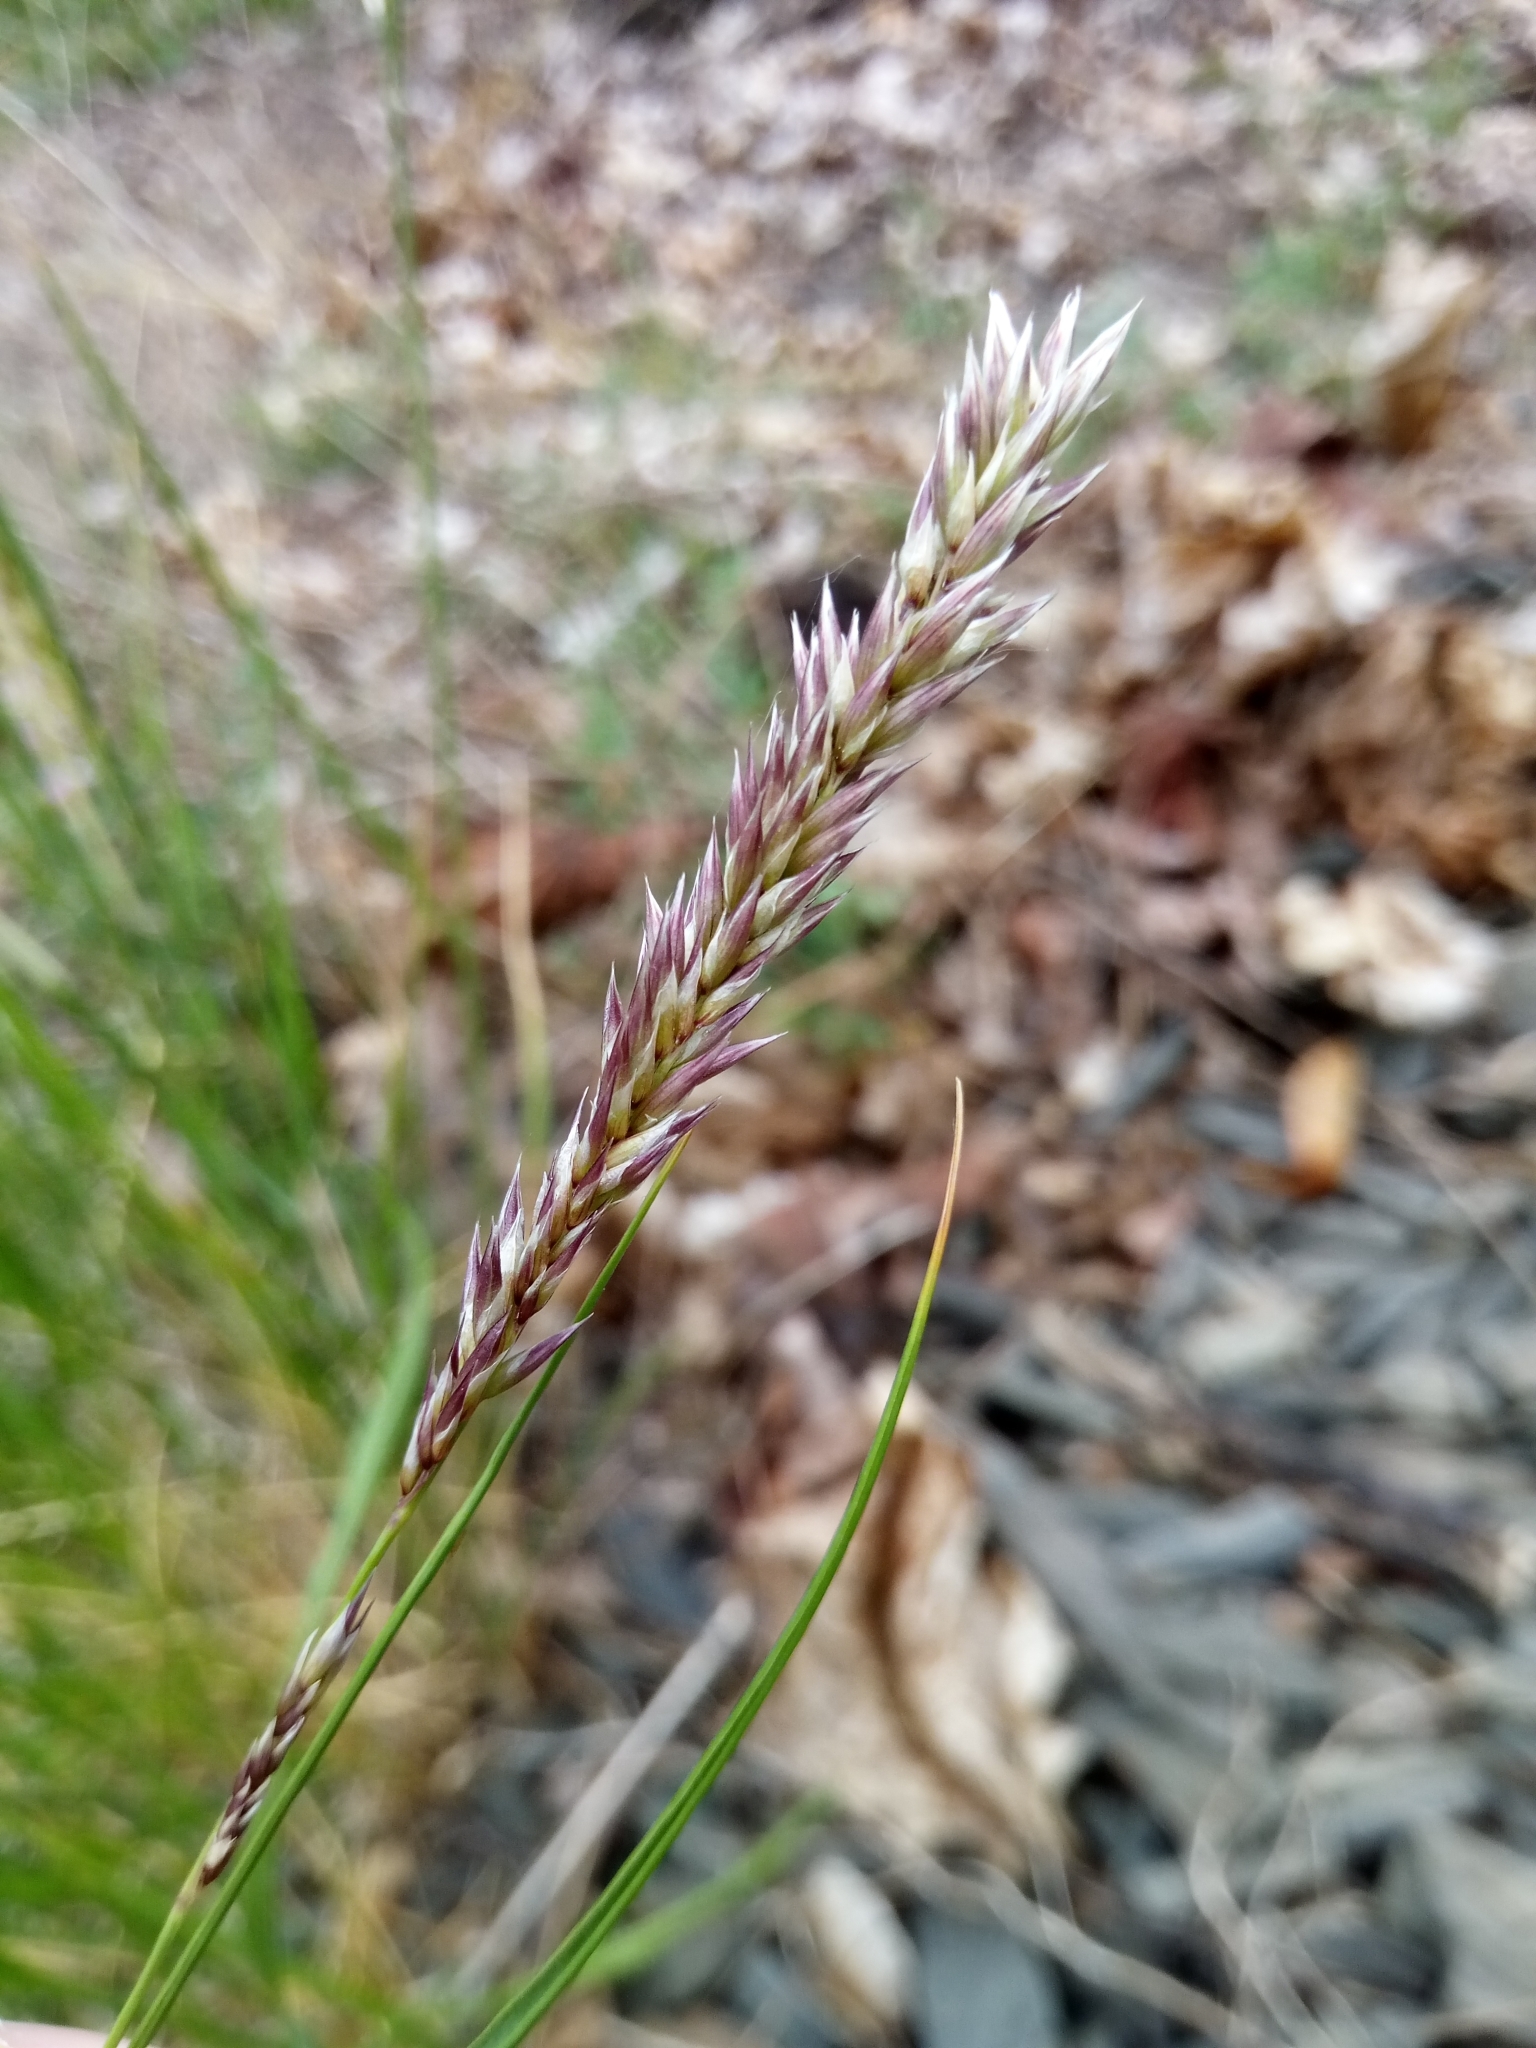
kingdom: Plantae
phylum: Tracheophyta
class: Liliopsida
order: Poales
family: Poaceae
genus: Melica
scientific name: Melica transsilvanica
